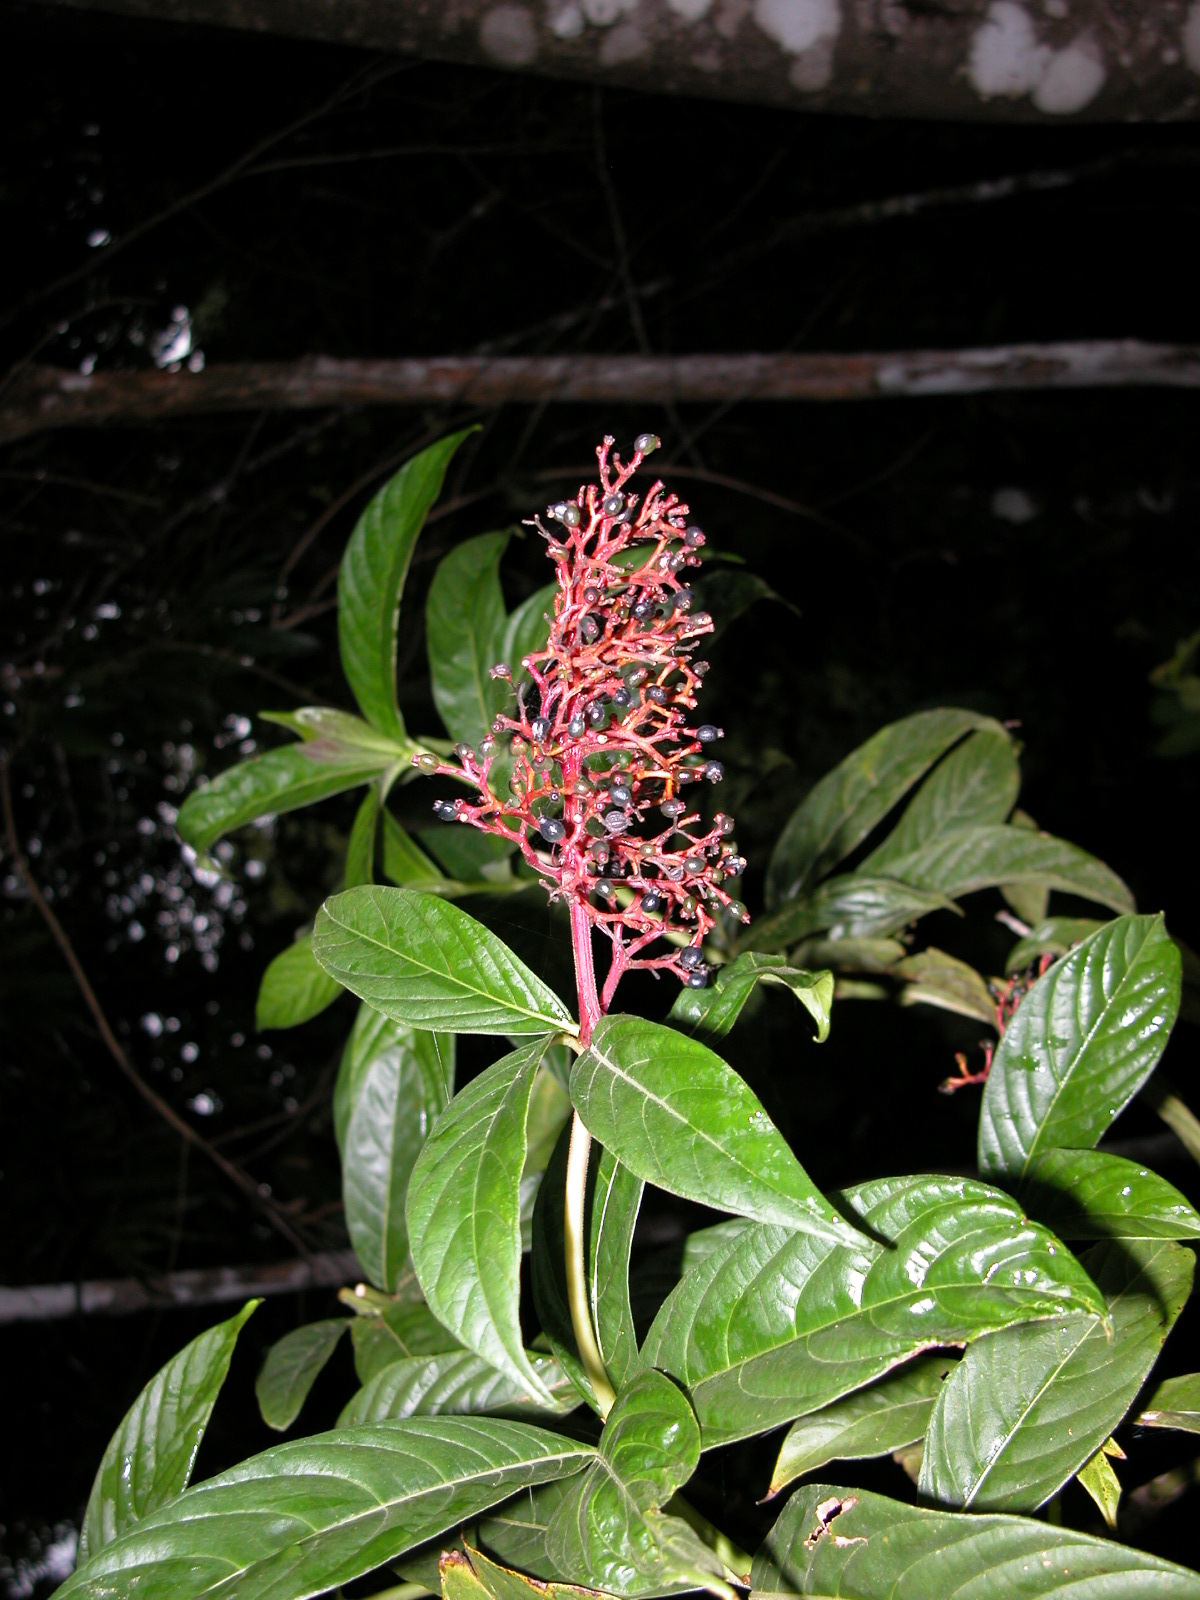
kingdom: Plantae
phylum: Tracheophyta
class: Magnoliopsida
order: Gentianales
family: Rubiaceae
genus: Palicourea
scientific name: Palicourea triphylla
